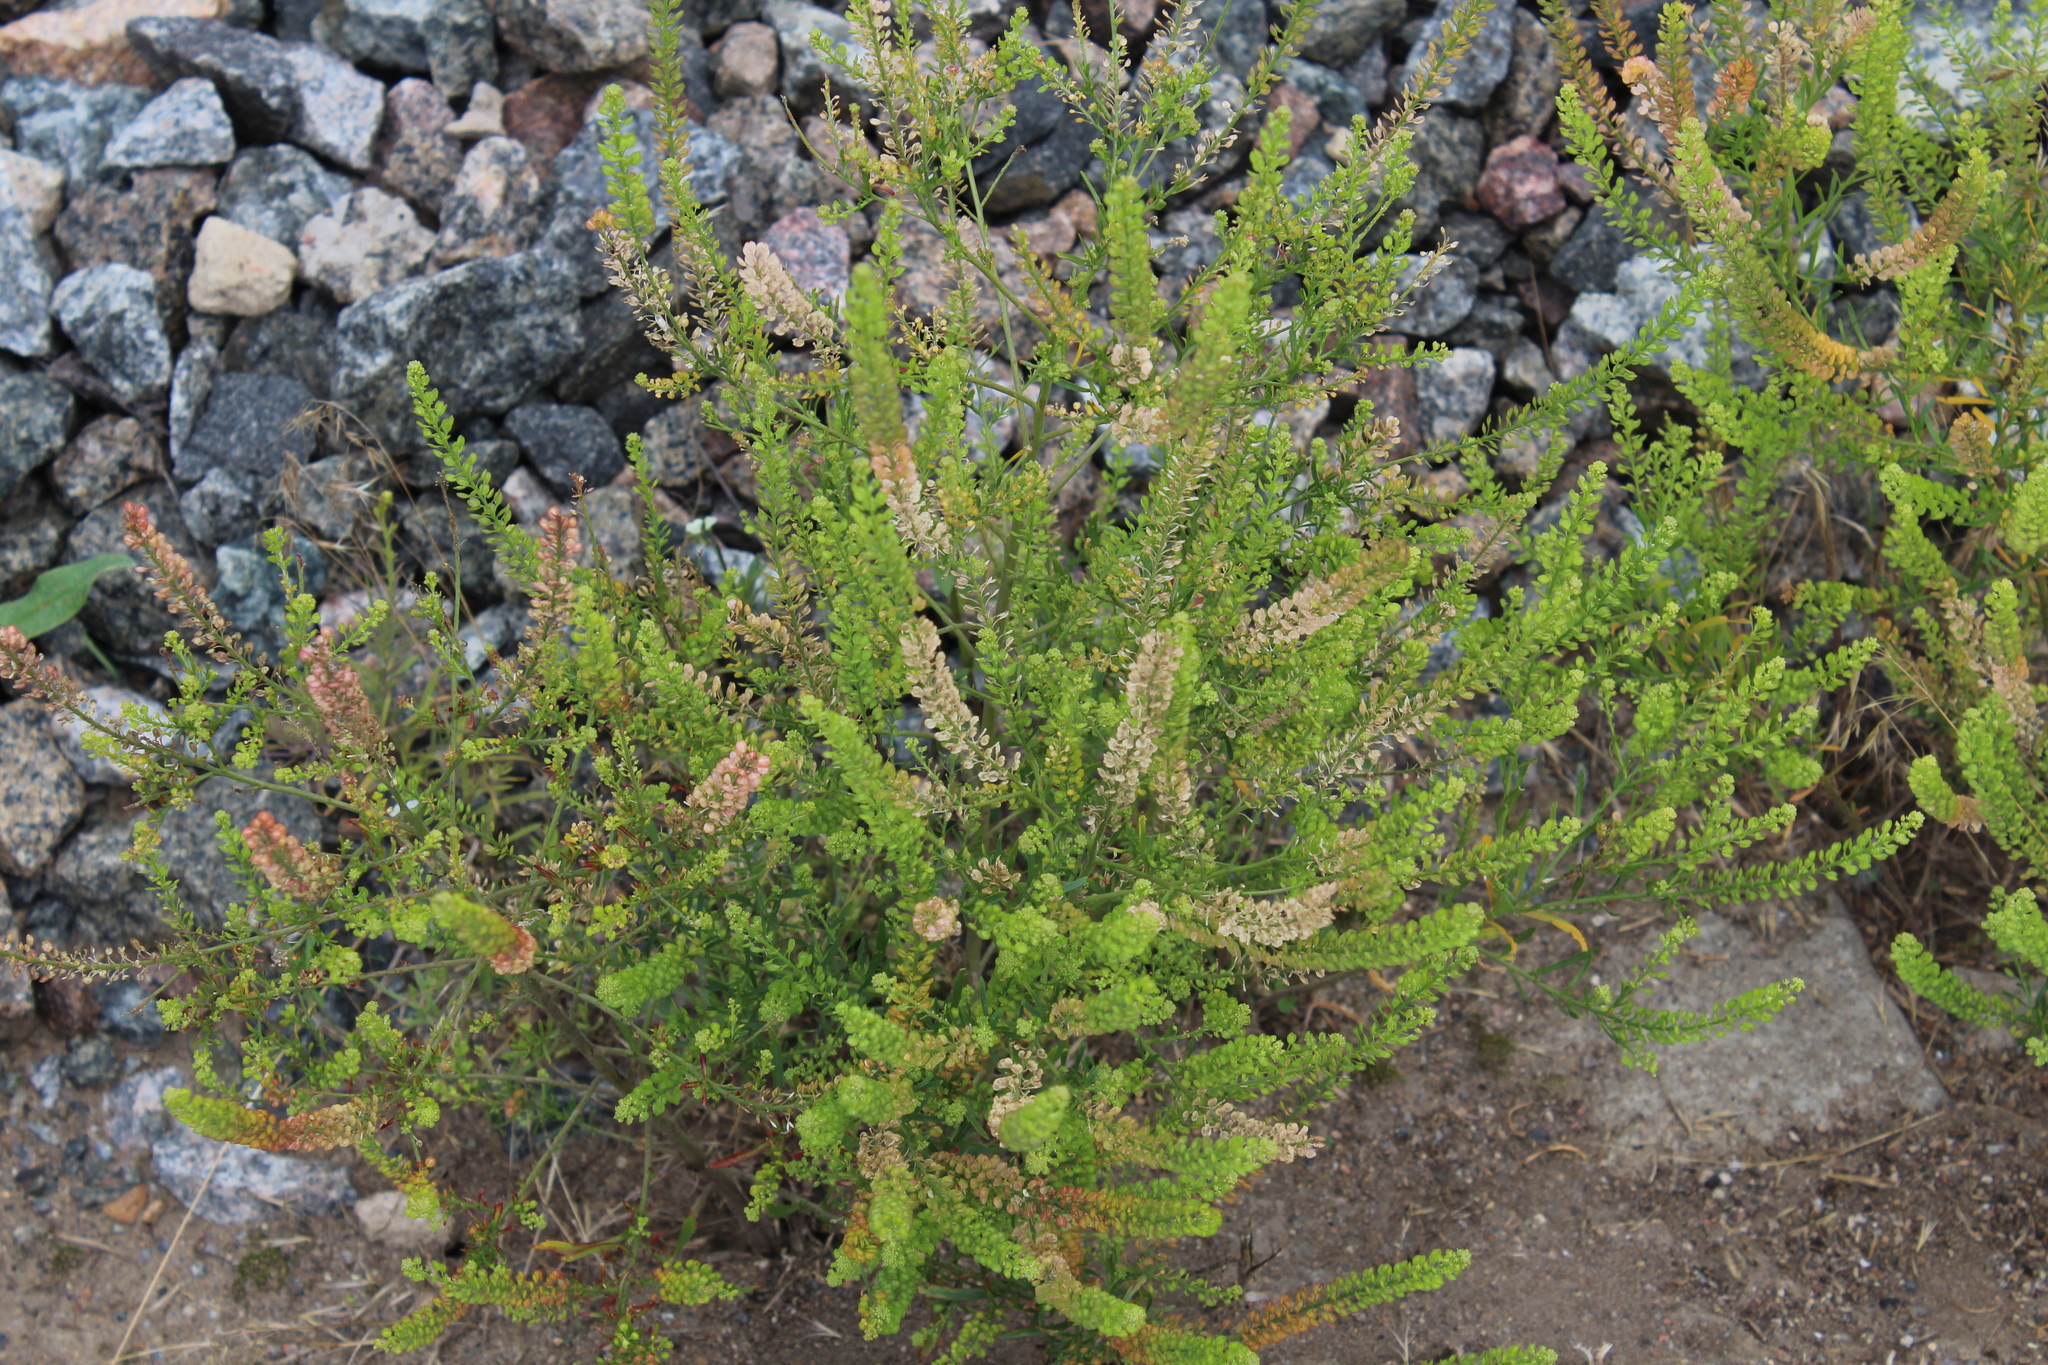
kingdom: Plantae
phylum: Tracheophyta
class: Magnoliopsida
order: Brassicales
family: Brassicaceae
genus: Lepidium
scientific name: Lepidium densiflorum
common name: Miner's pepperwort
